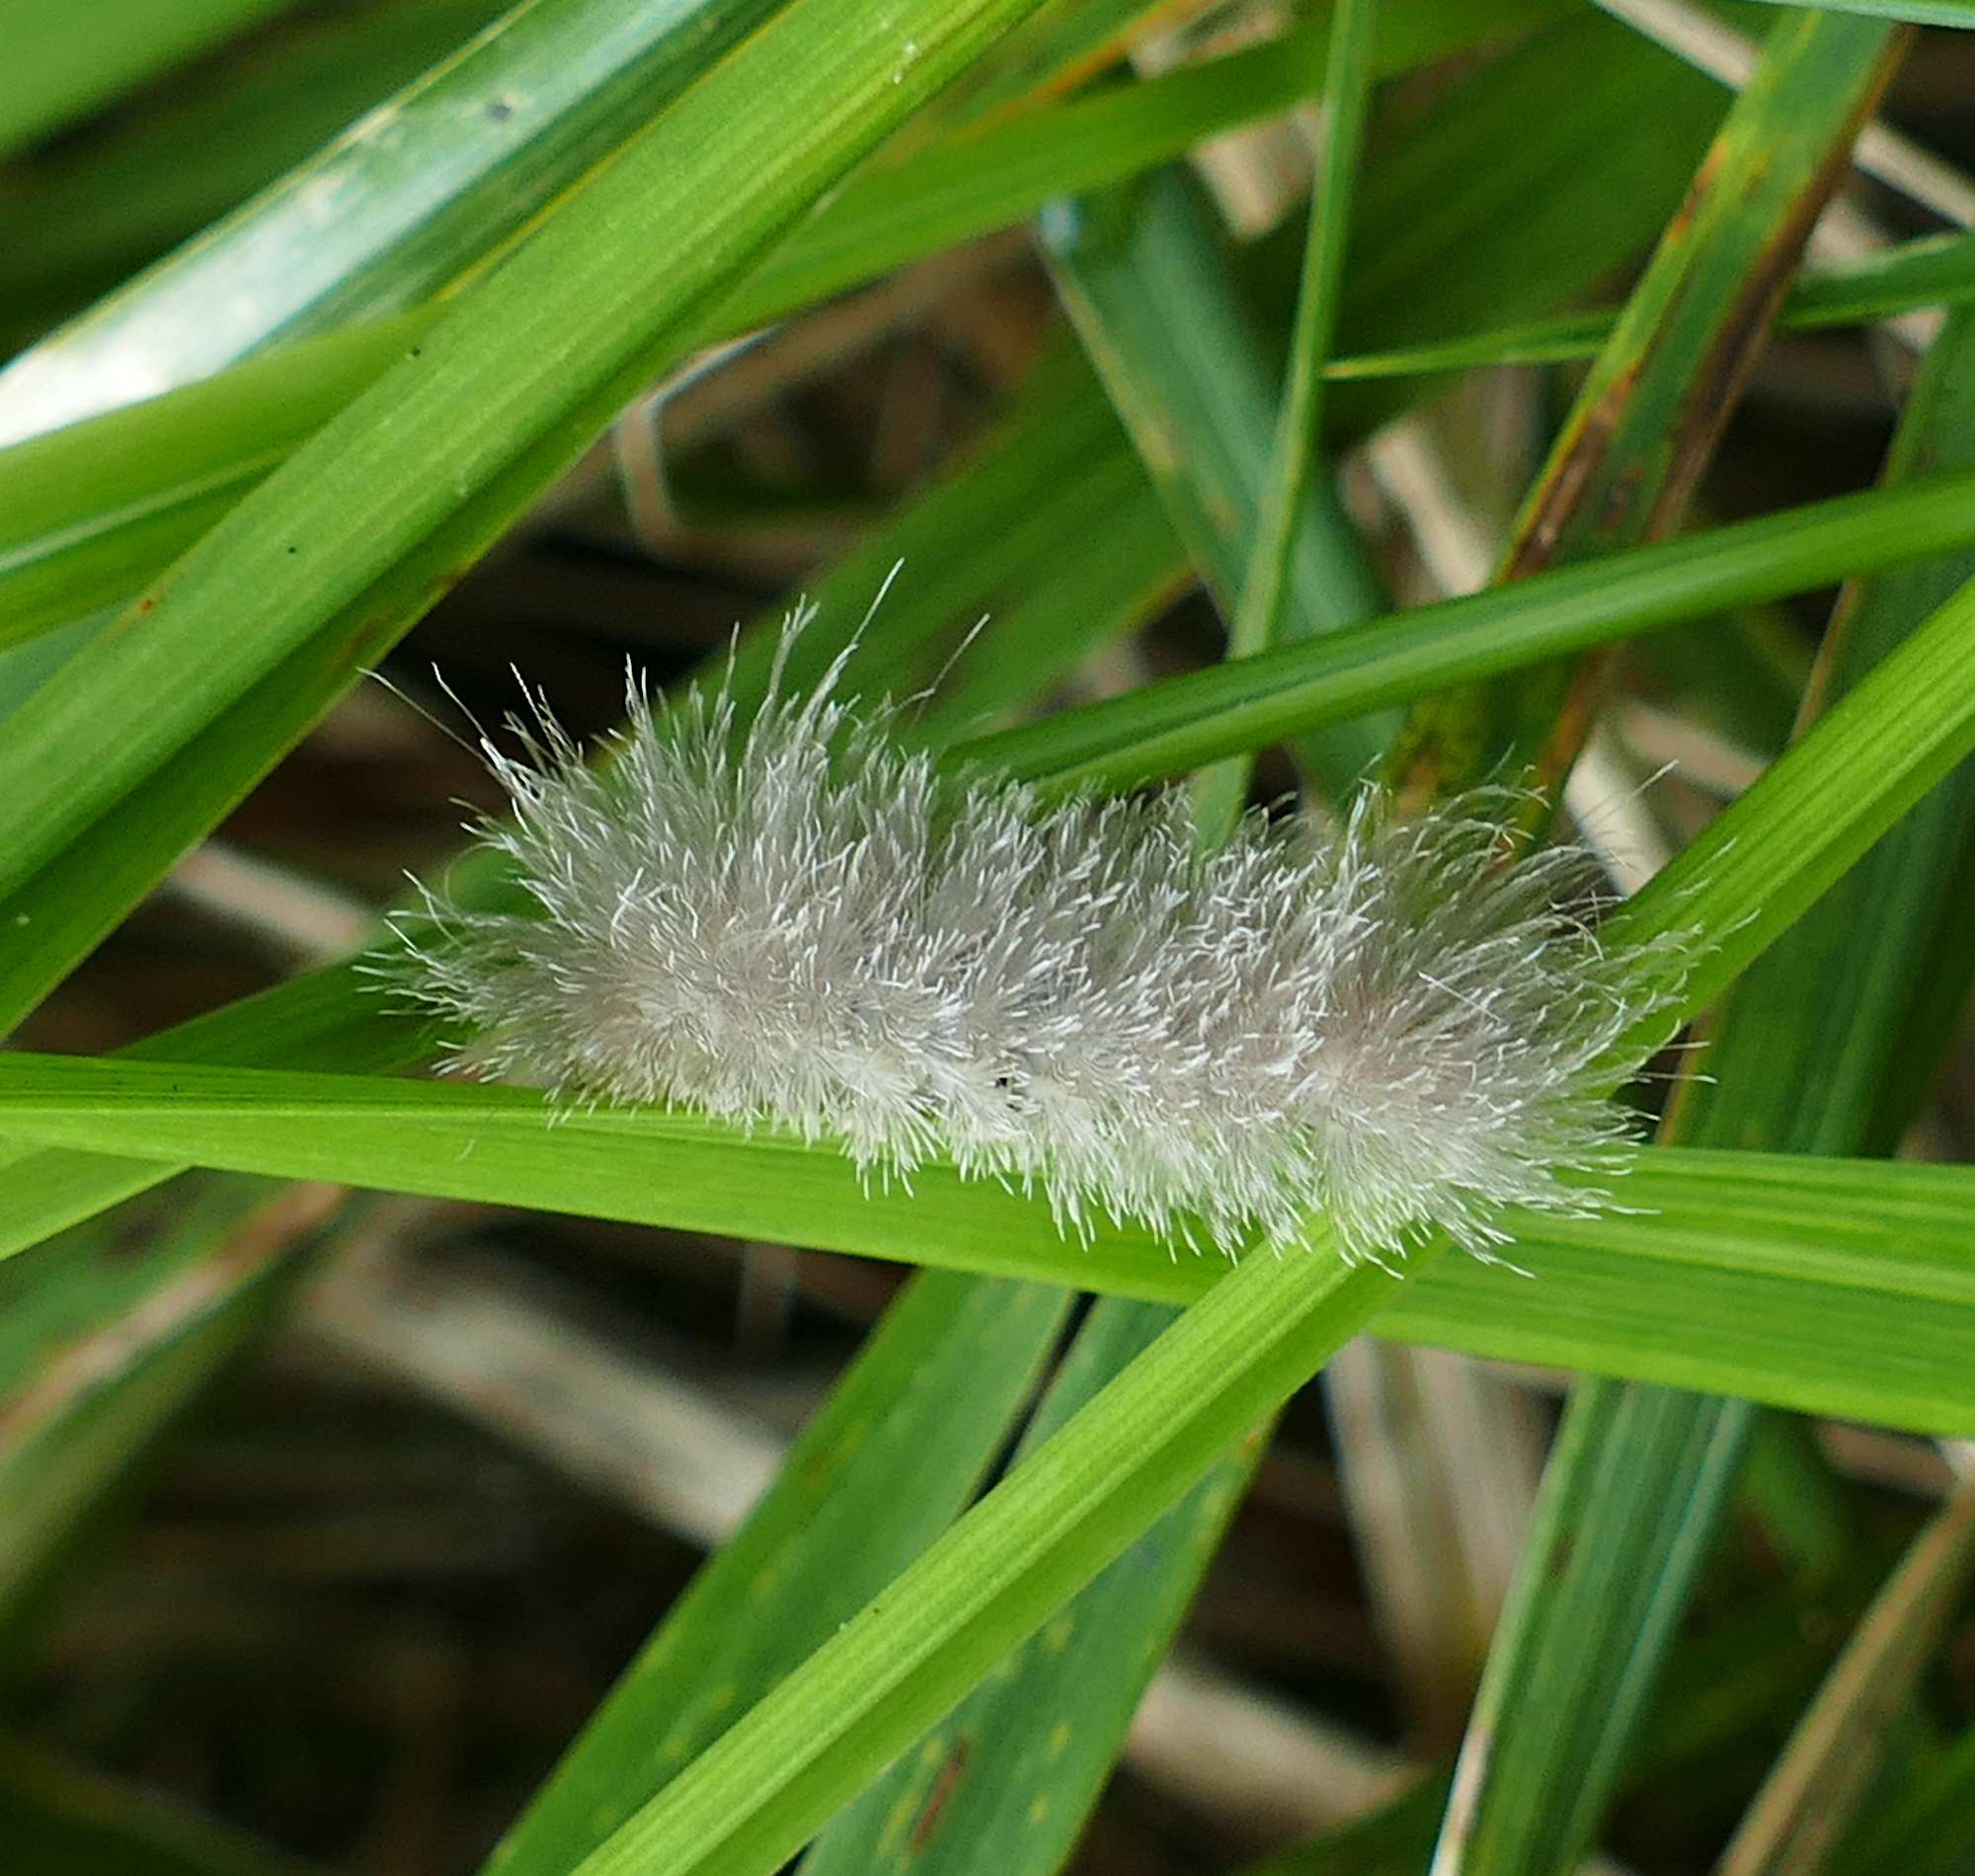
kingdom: Animalia
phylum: Arthropoda
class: Insecta
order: Lepidoptera
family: Erebidae
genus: Cycnia
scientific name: Cycnia tenera
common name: Delicate cycnia moth
